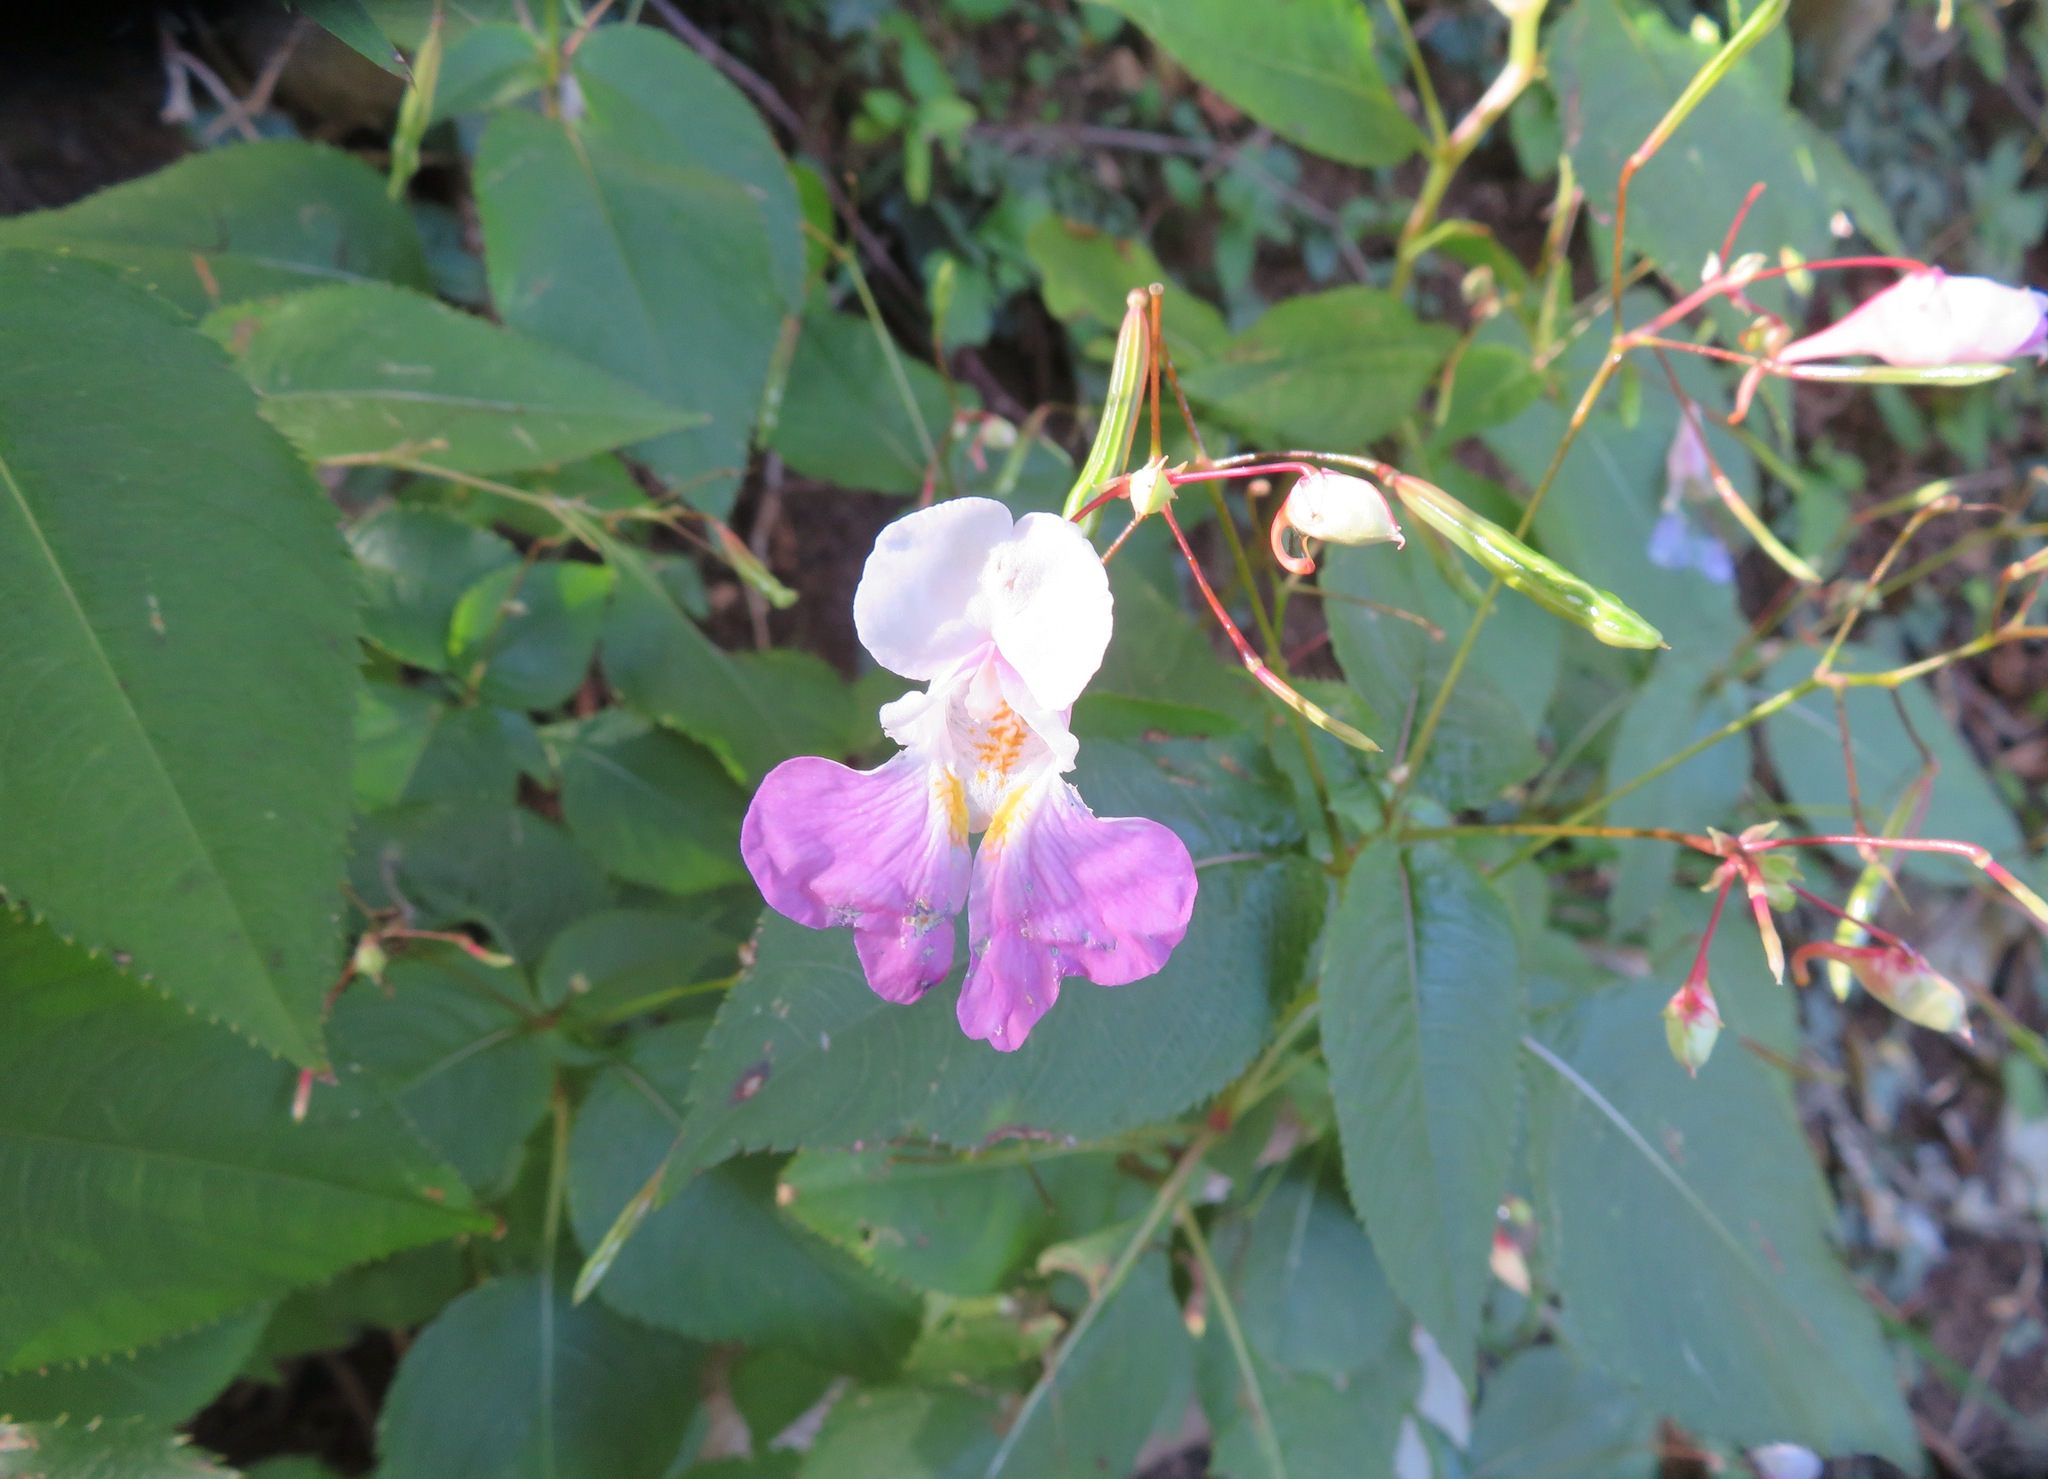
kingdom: Plantae
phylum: Tracheophyta
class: Magnoliopsida
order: Ericales
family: Balsaminaceae
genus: Impatiens
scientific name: Impatiens balfourii
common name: Balfour's touch-me-not
